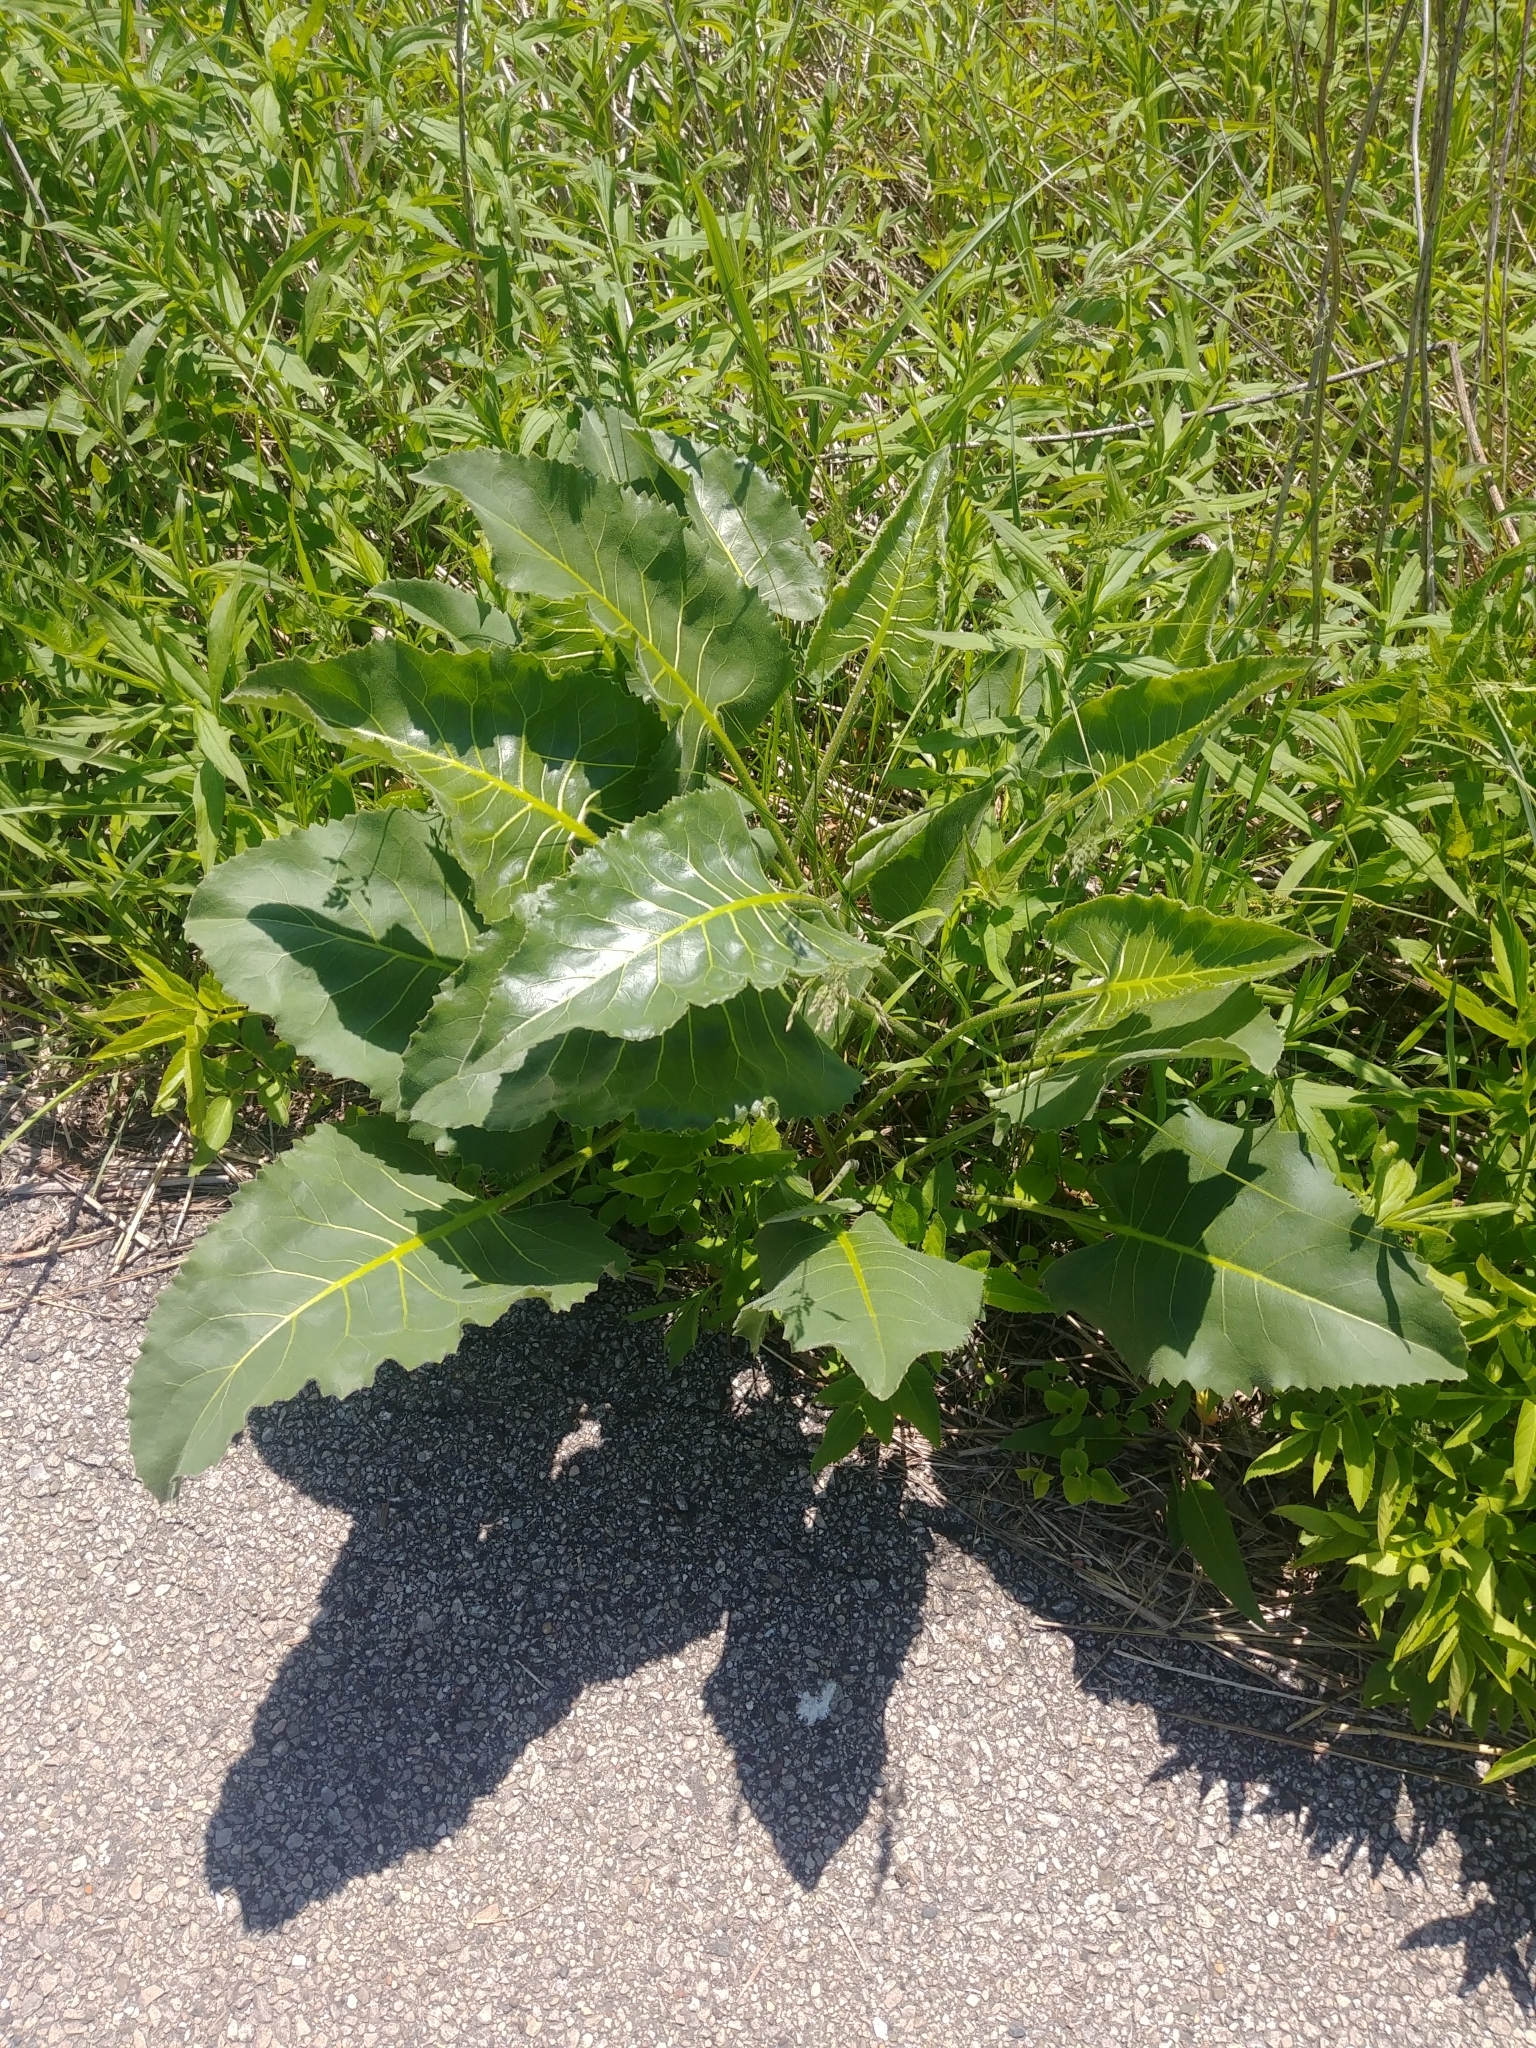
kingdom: Plantae
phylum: Tracheophyta
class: Magnoliopsida
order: Asterales
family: Asteraceae
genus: Silphium
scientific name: Silphium terebinthinaceum
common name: Basal-leaf rosinweed
